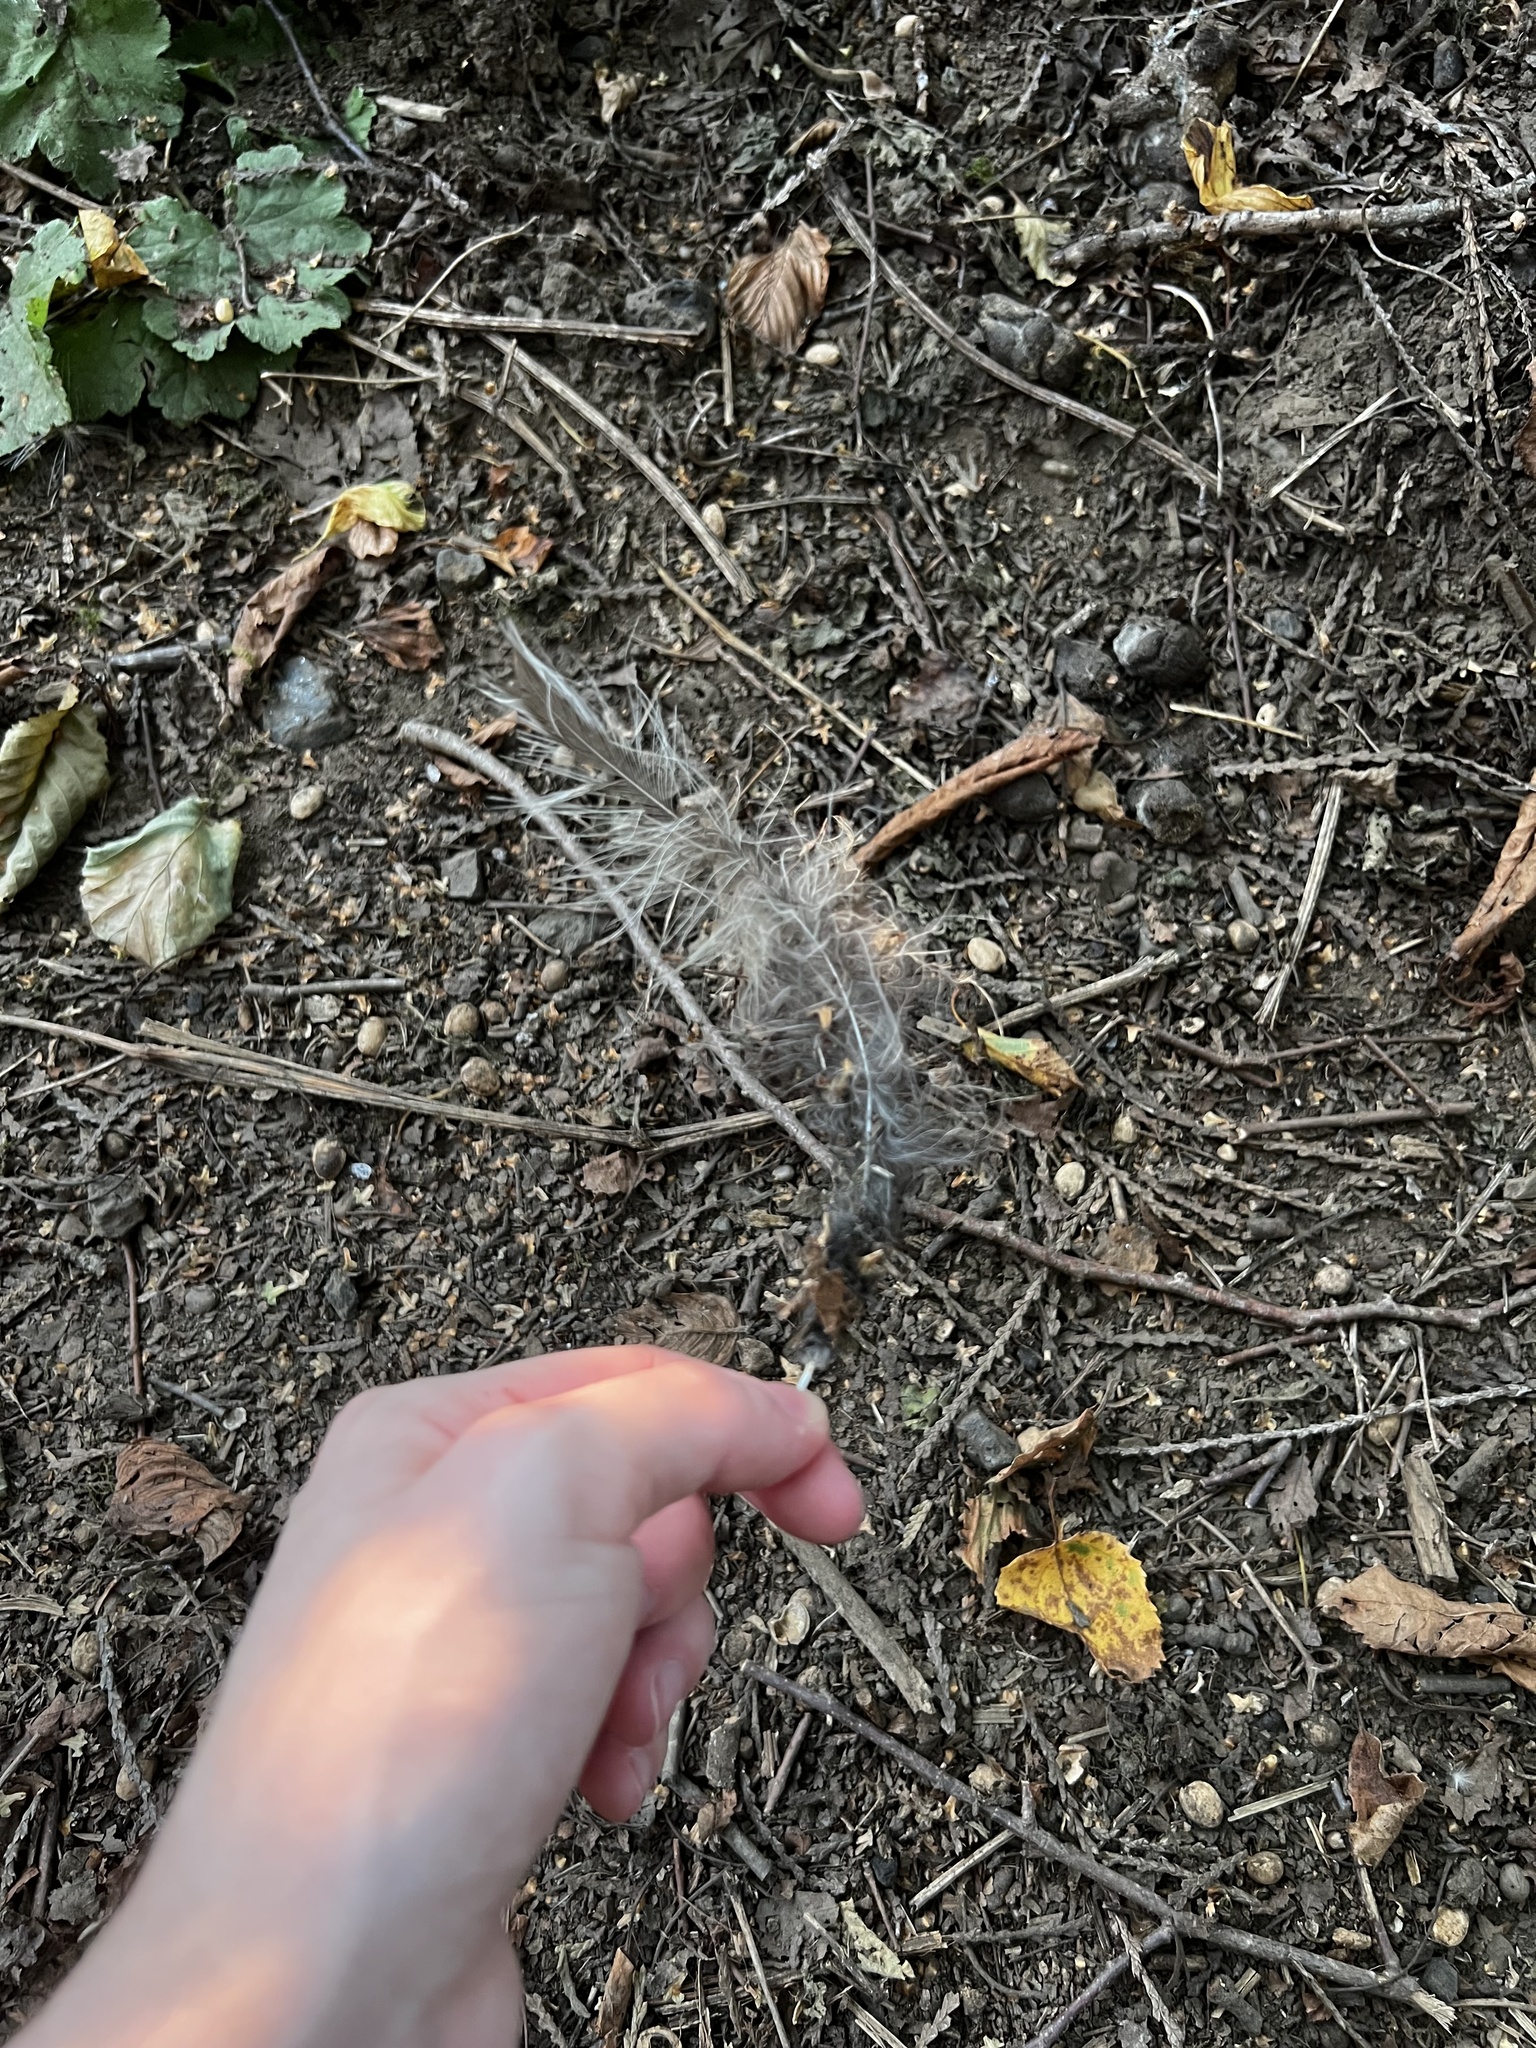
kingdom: Animalia
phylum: Chordata
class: Aves
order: Strigiformes
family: Strigidae
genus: Strix
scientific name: Strix varia
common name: Barred owl
